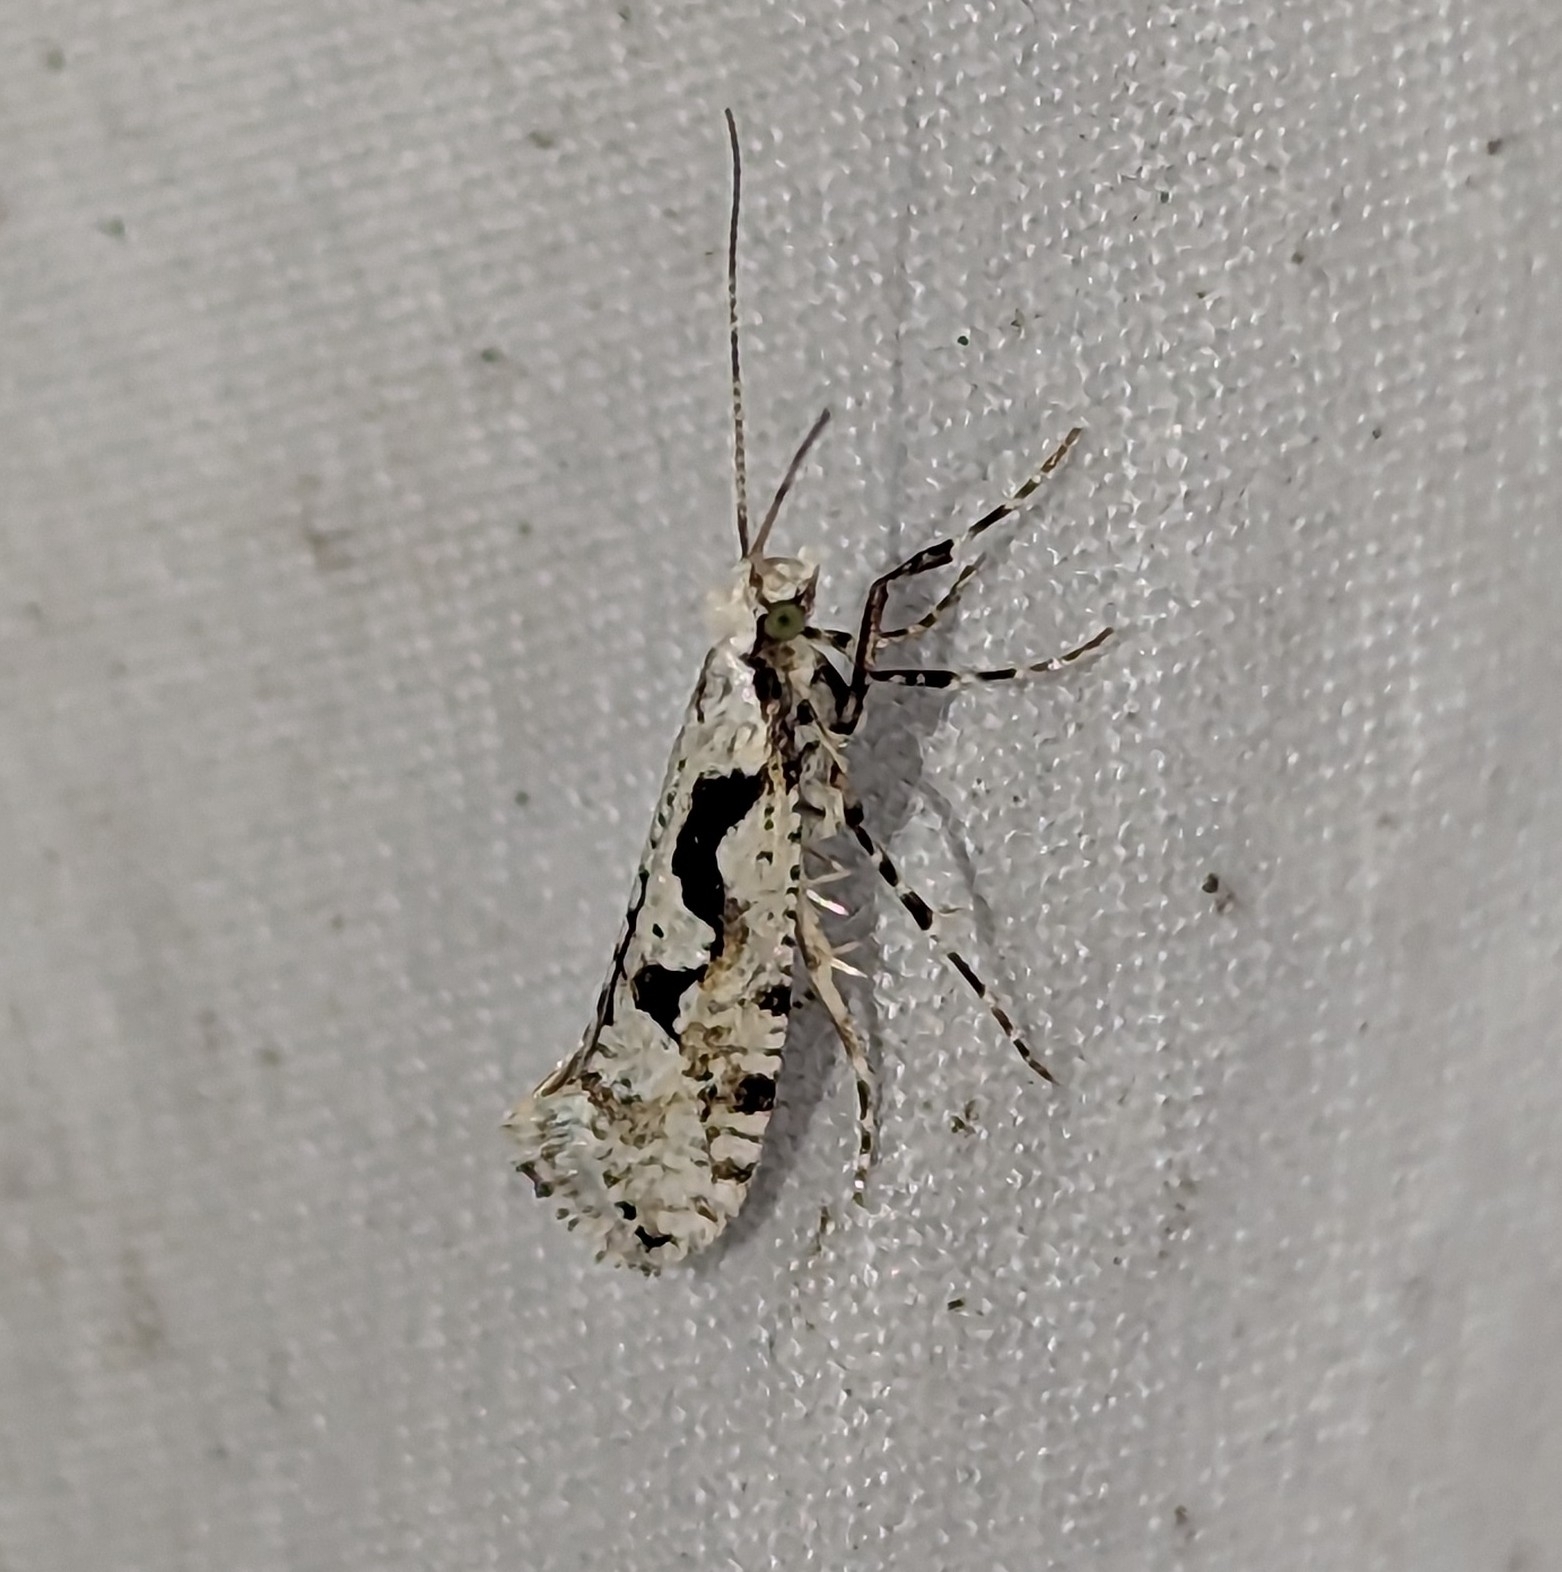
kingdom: Animalia
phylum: Arthropoda
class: Insecta
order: Lepidoptera
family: Plutellidae
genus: Rhigognostis
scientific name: Rhigognostis interrupta
